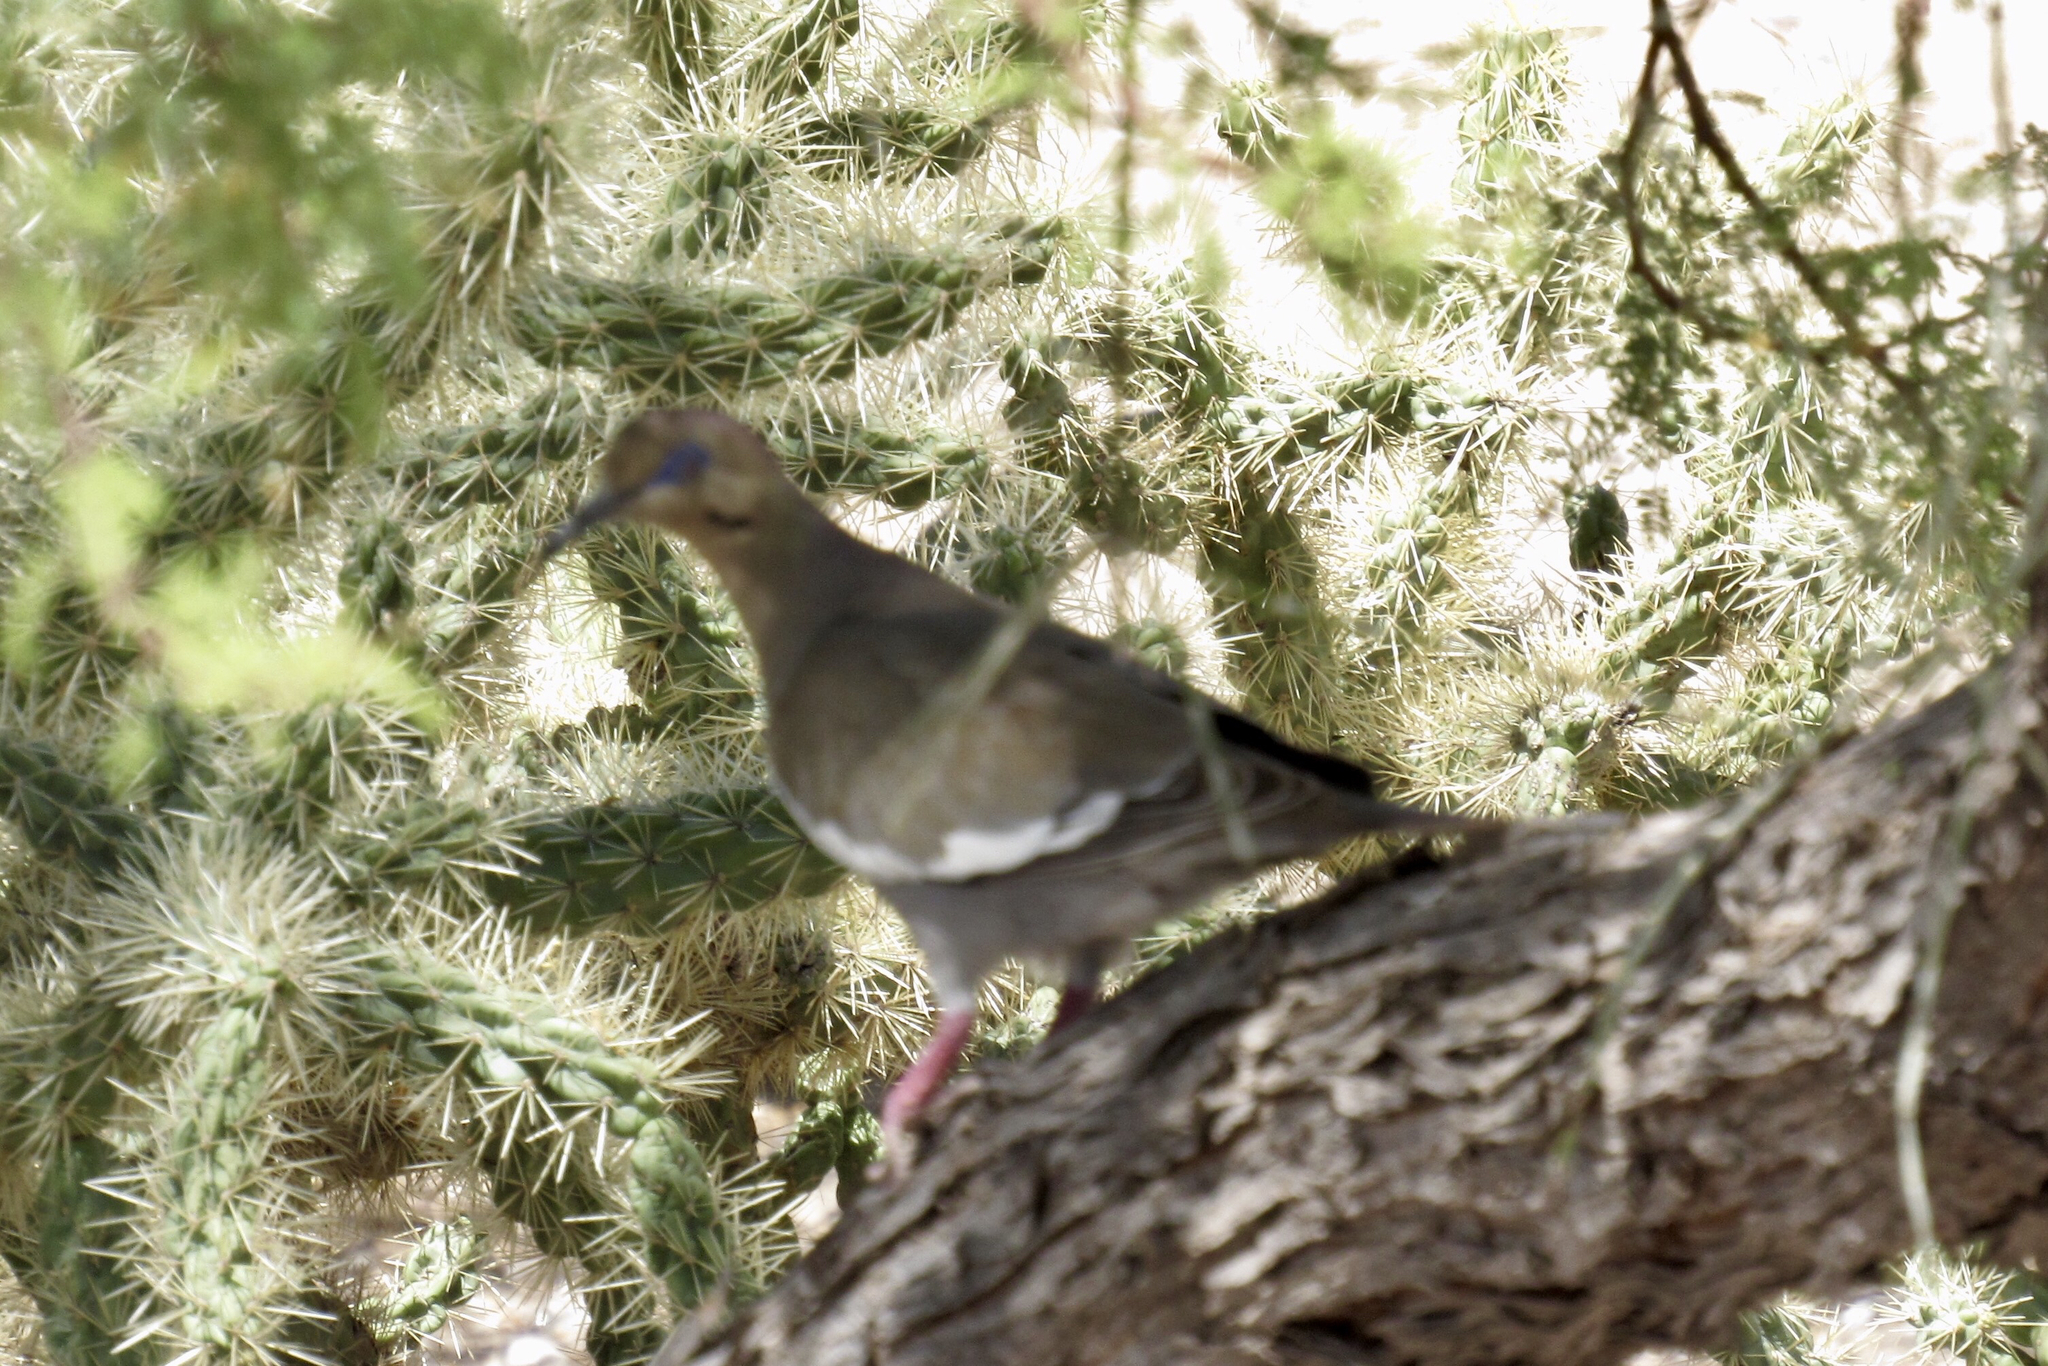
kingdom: Animalia
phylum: Chordata
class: Aves
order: Columbiformes
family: Columbidae
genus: Zenaida
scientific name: Zenaida asiatica
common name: White-winged dove
